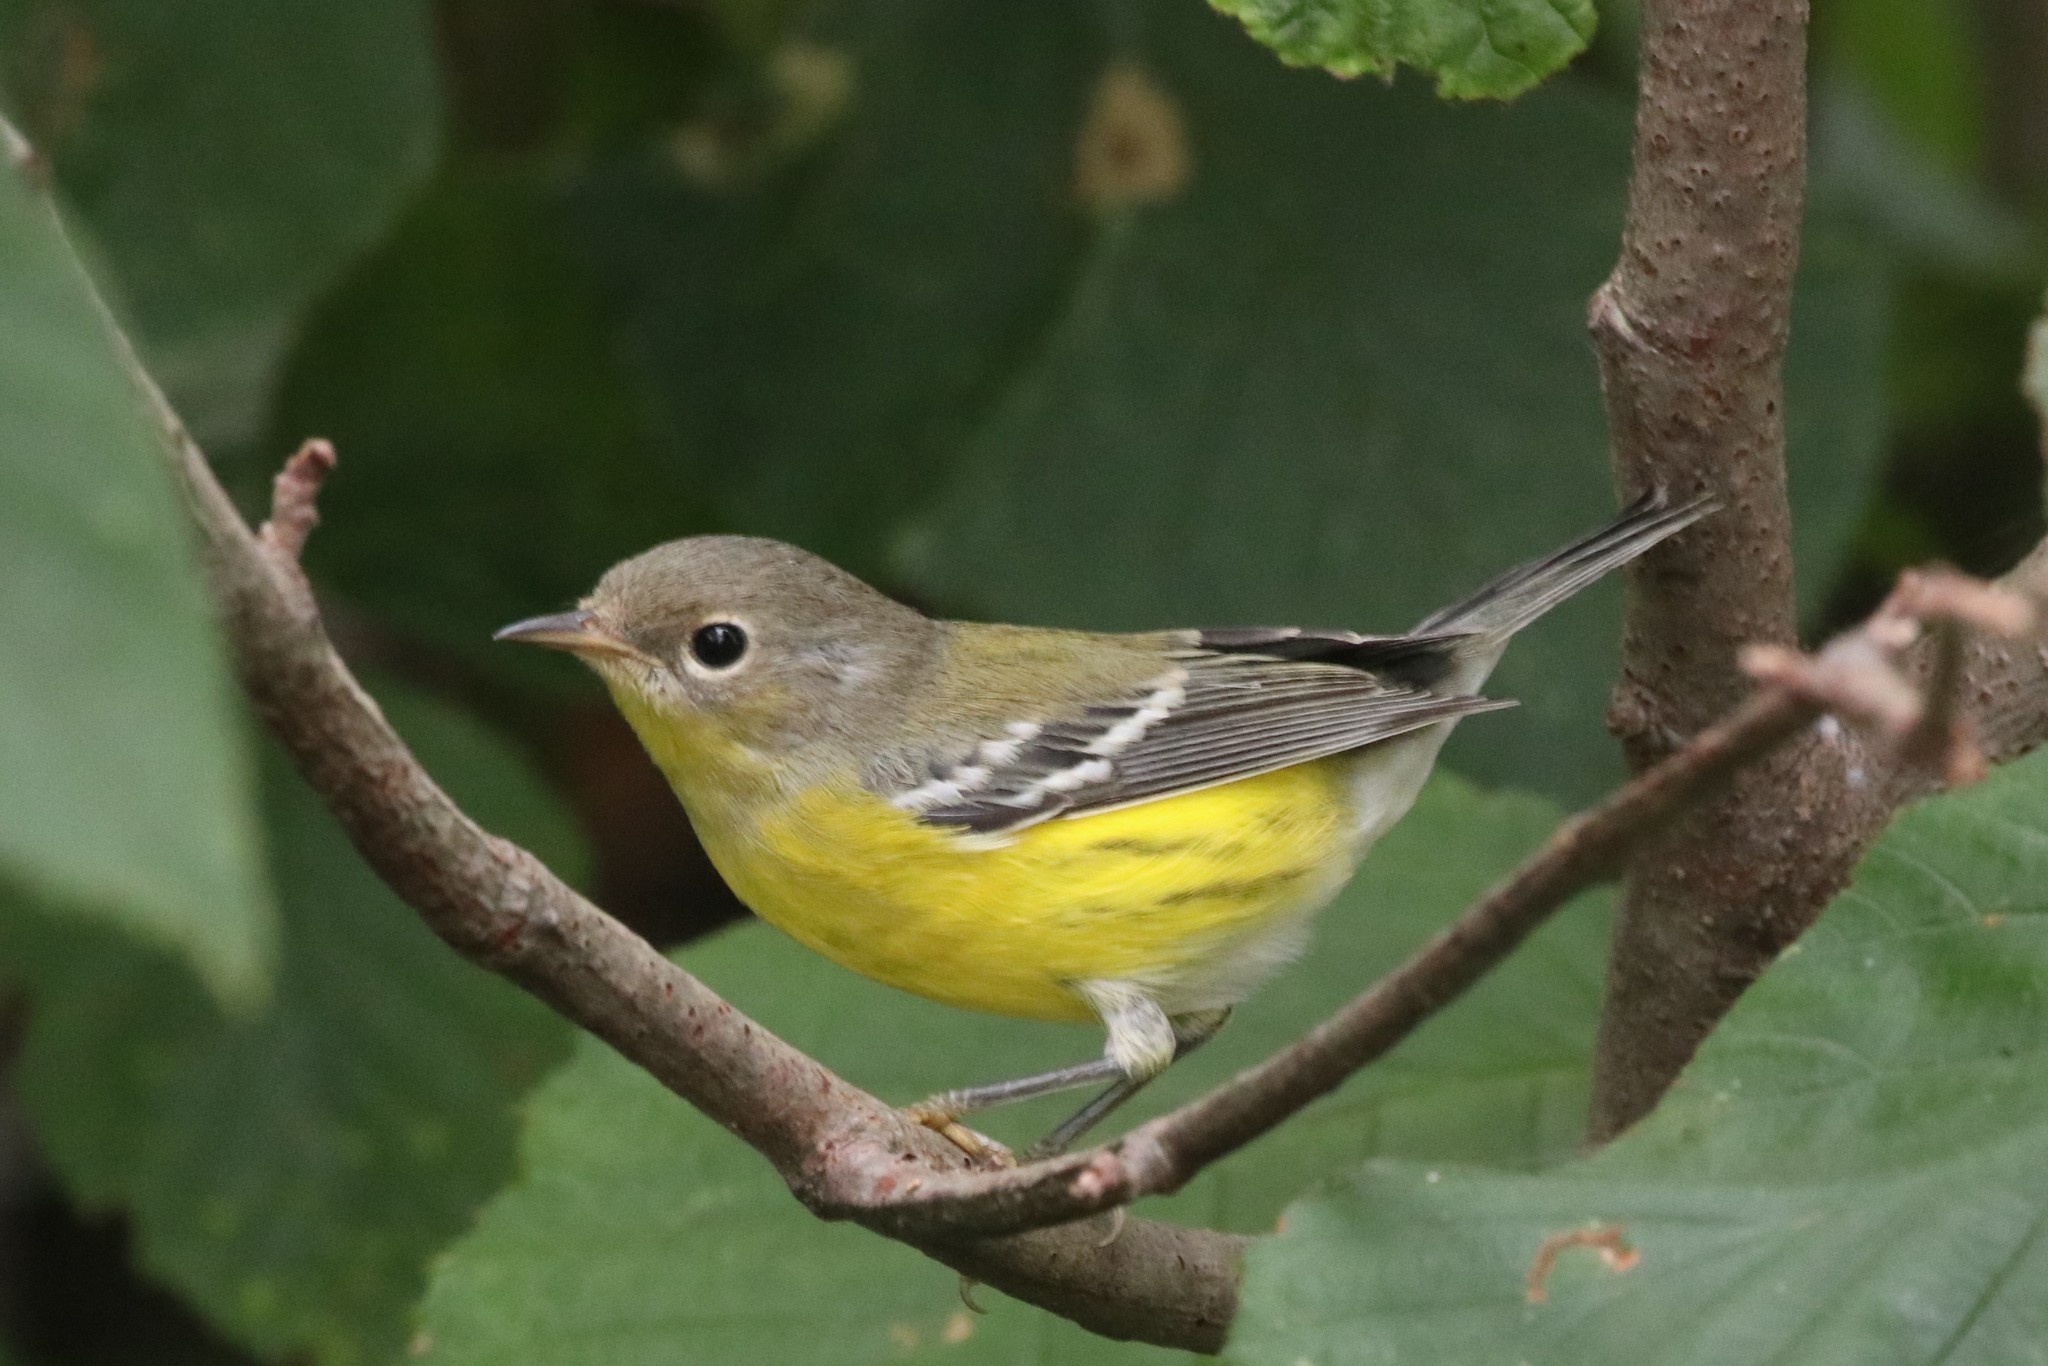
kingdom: Animalia
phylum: Chordata
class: Aves
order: Passeriformes
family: Parulidae
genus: Setophaga
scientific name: Setophaga magnolia
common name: Magnolia warbler
